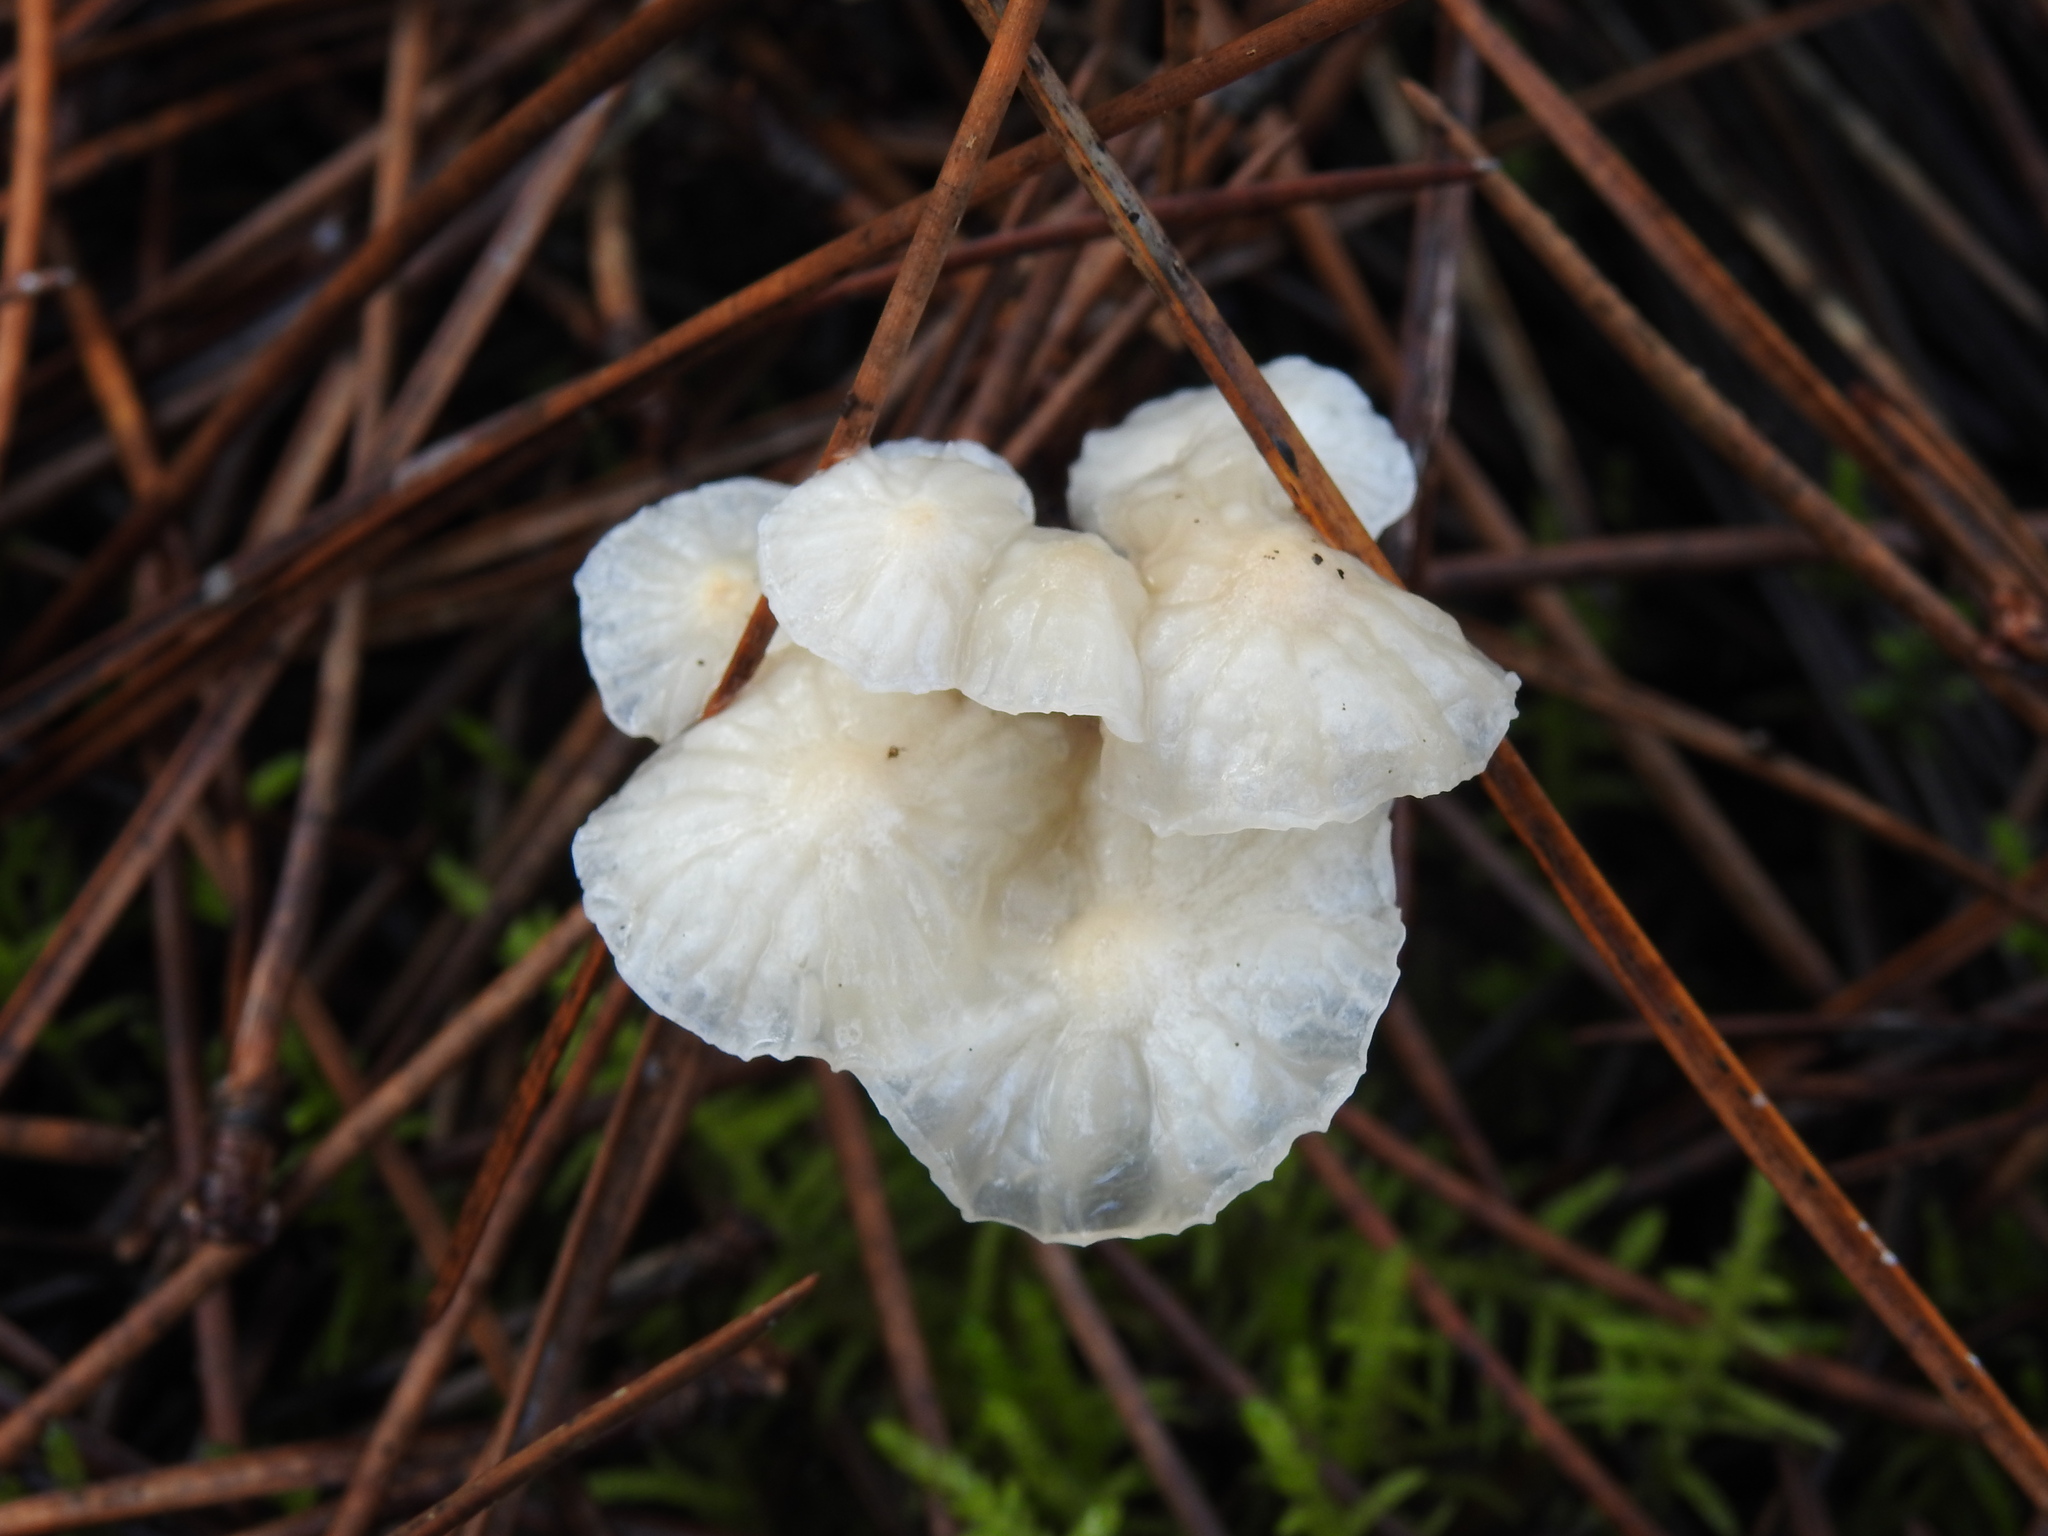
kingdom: Fungi
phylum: Basidiomycota
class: Agaricomycetes
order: Agaricales
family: Omphalotaceae
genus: Marasmiellus
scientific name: Marasmiellus candidus
